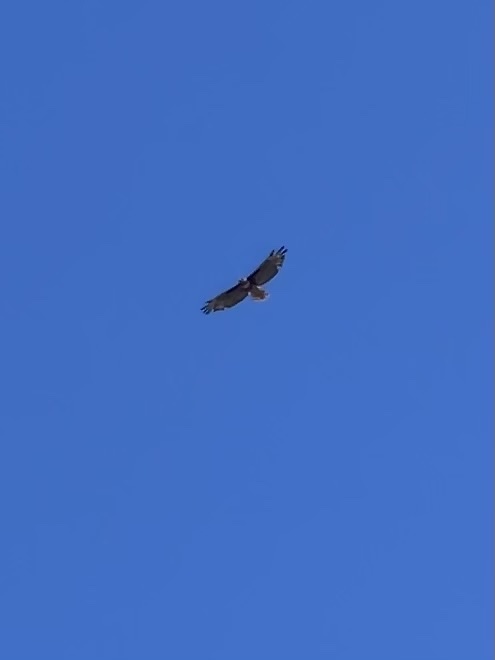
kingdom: Animalia
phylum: Chordata
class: Aves
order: Accipitriformes
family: Accipitridae
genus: Buteo
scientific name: Buteo jamaicensis
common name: Red-tailed hawk
